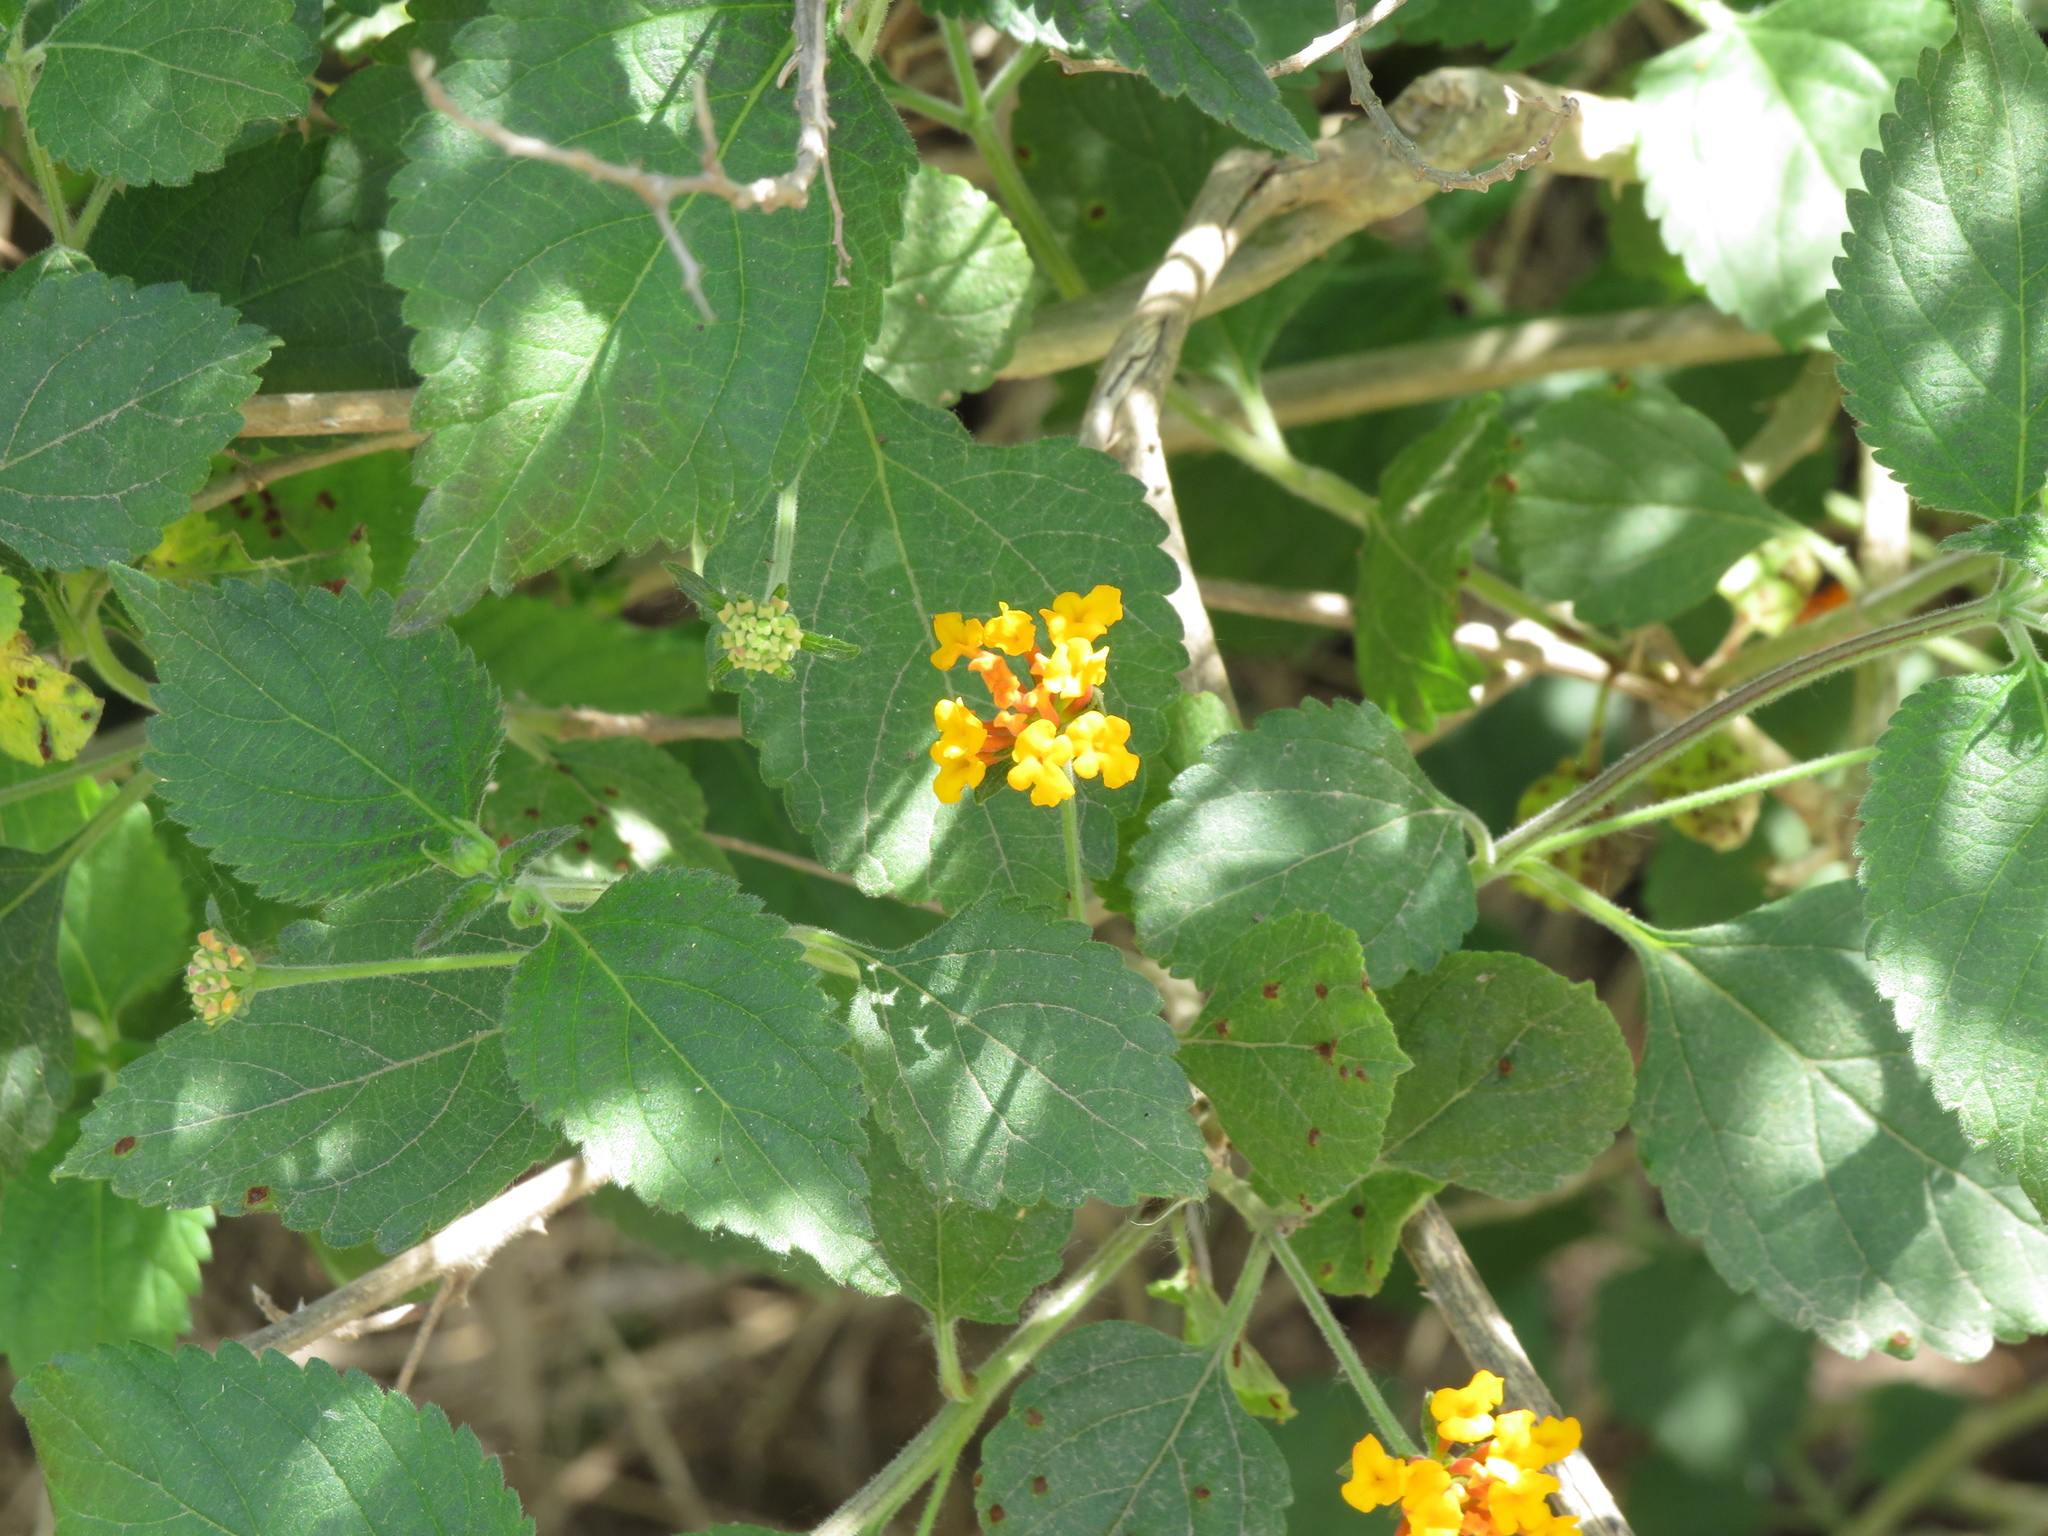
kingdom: Plantae
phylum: Tracheophyta
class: Magnoliopsida
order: Lamiales
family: Verbenaceae
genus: Lantana
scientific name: Lantana camara
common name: Lantana
